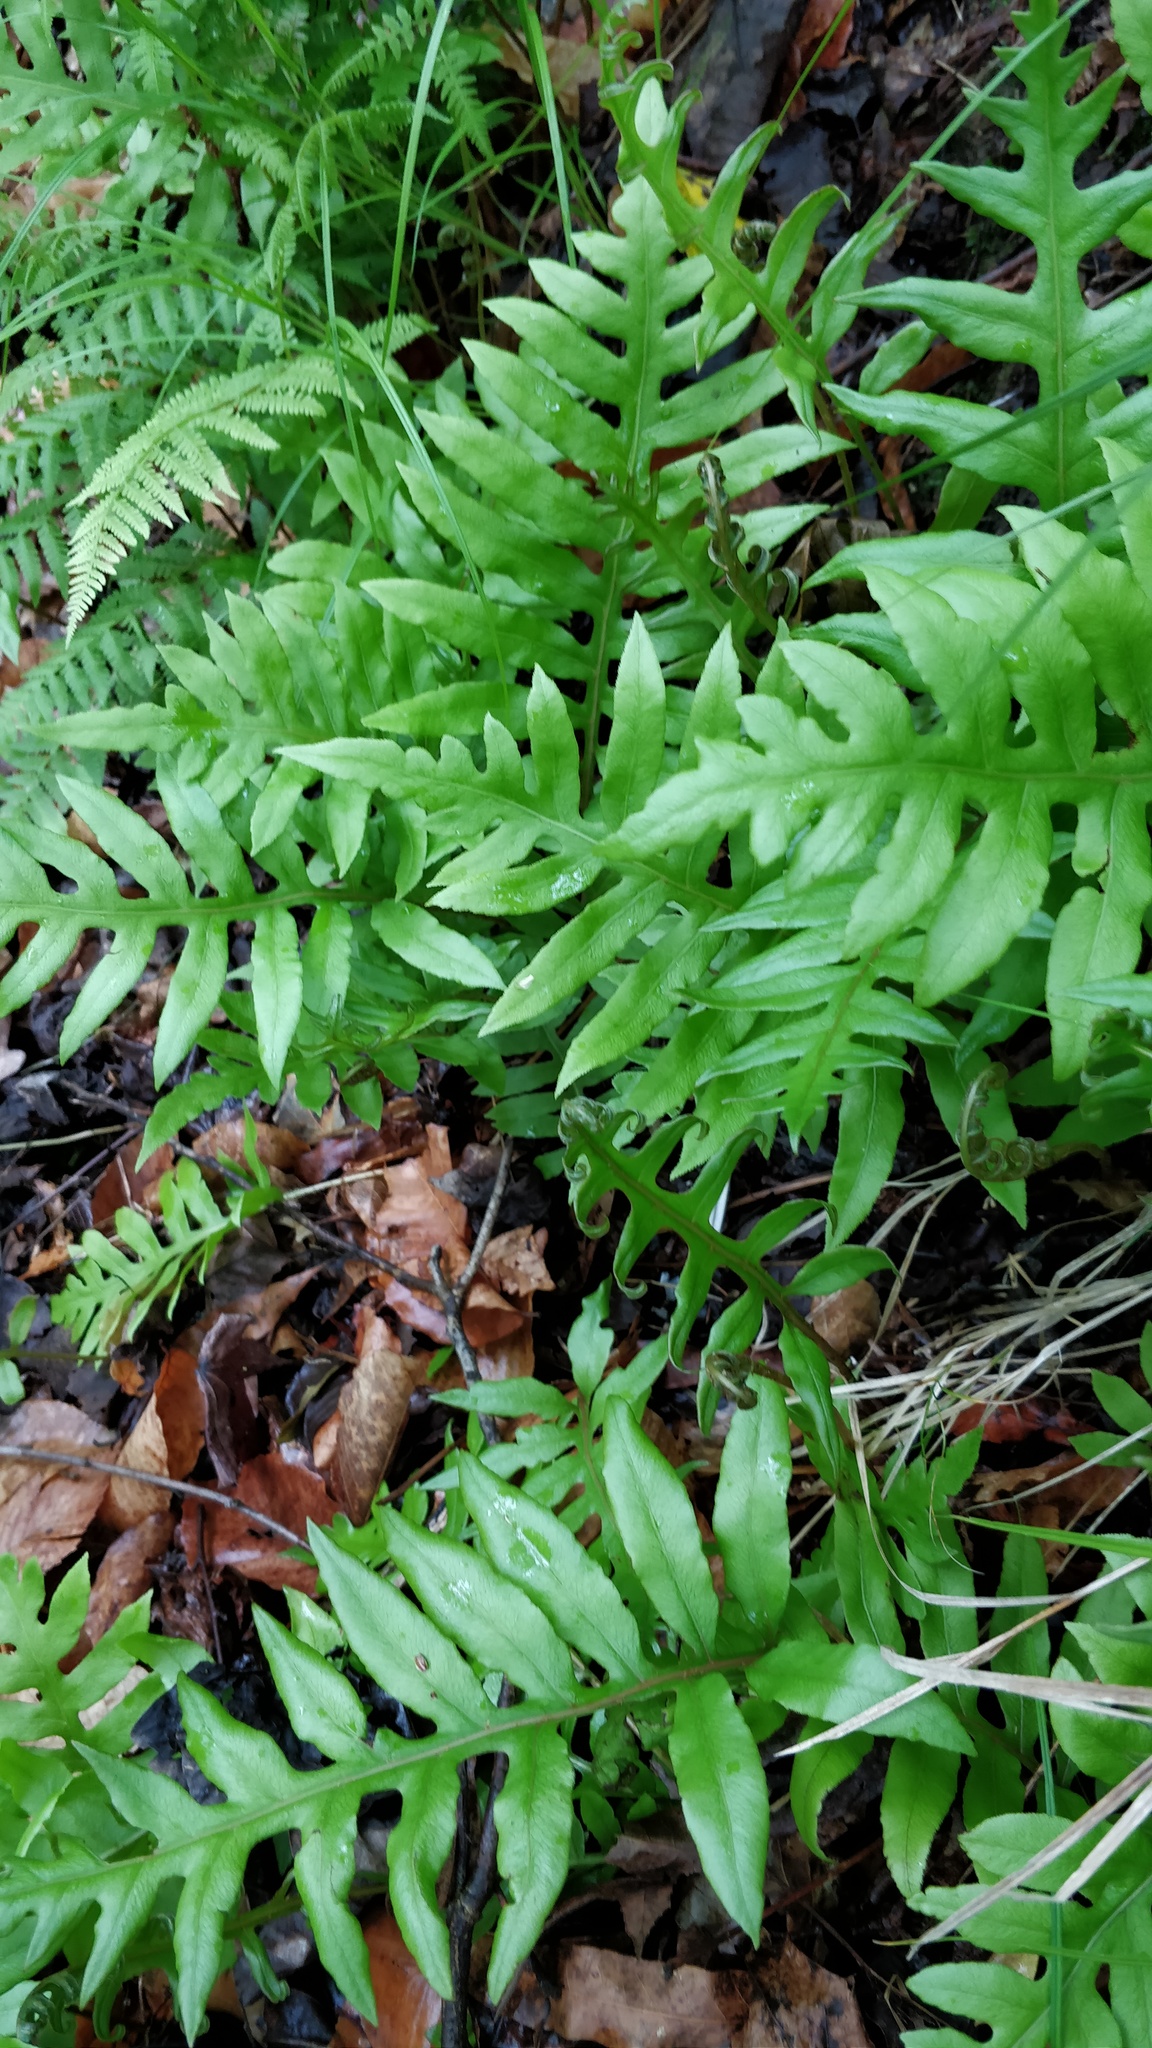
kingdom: Plantae
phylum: Tracheophyta
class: Polypodiopsida
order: Polypodiales
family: Blechnaceae
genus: Lorinseria
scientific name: Lorinseria areolata
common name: Dwarf chain fern
